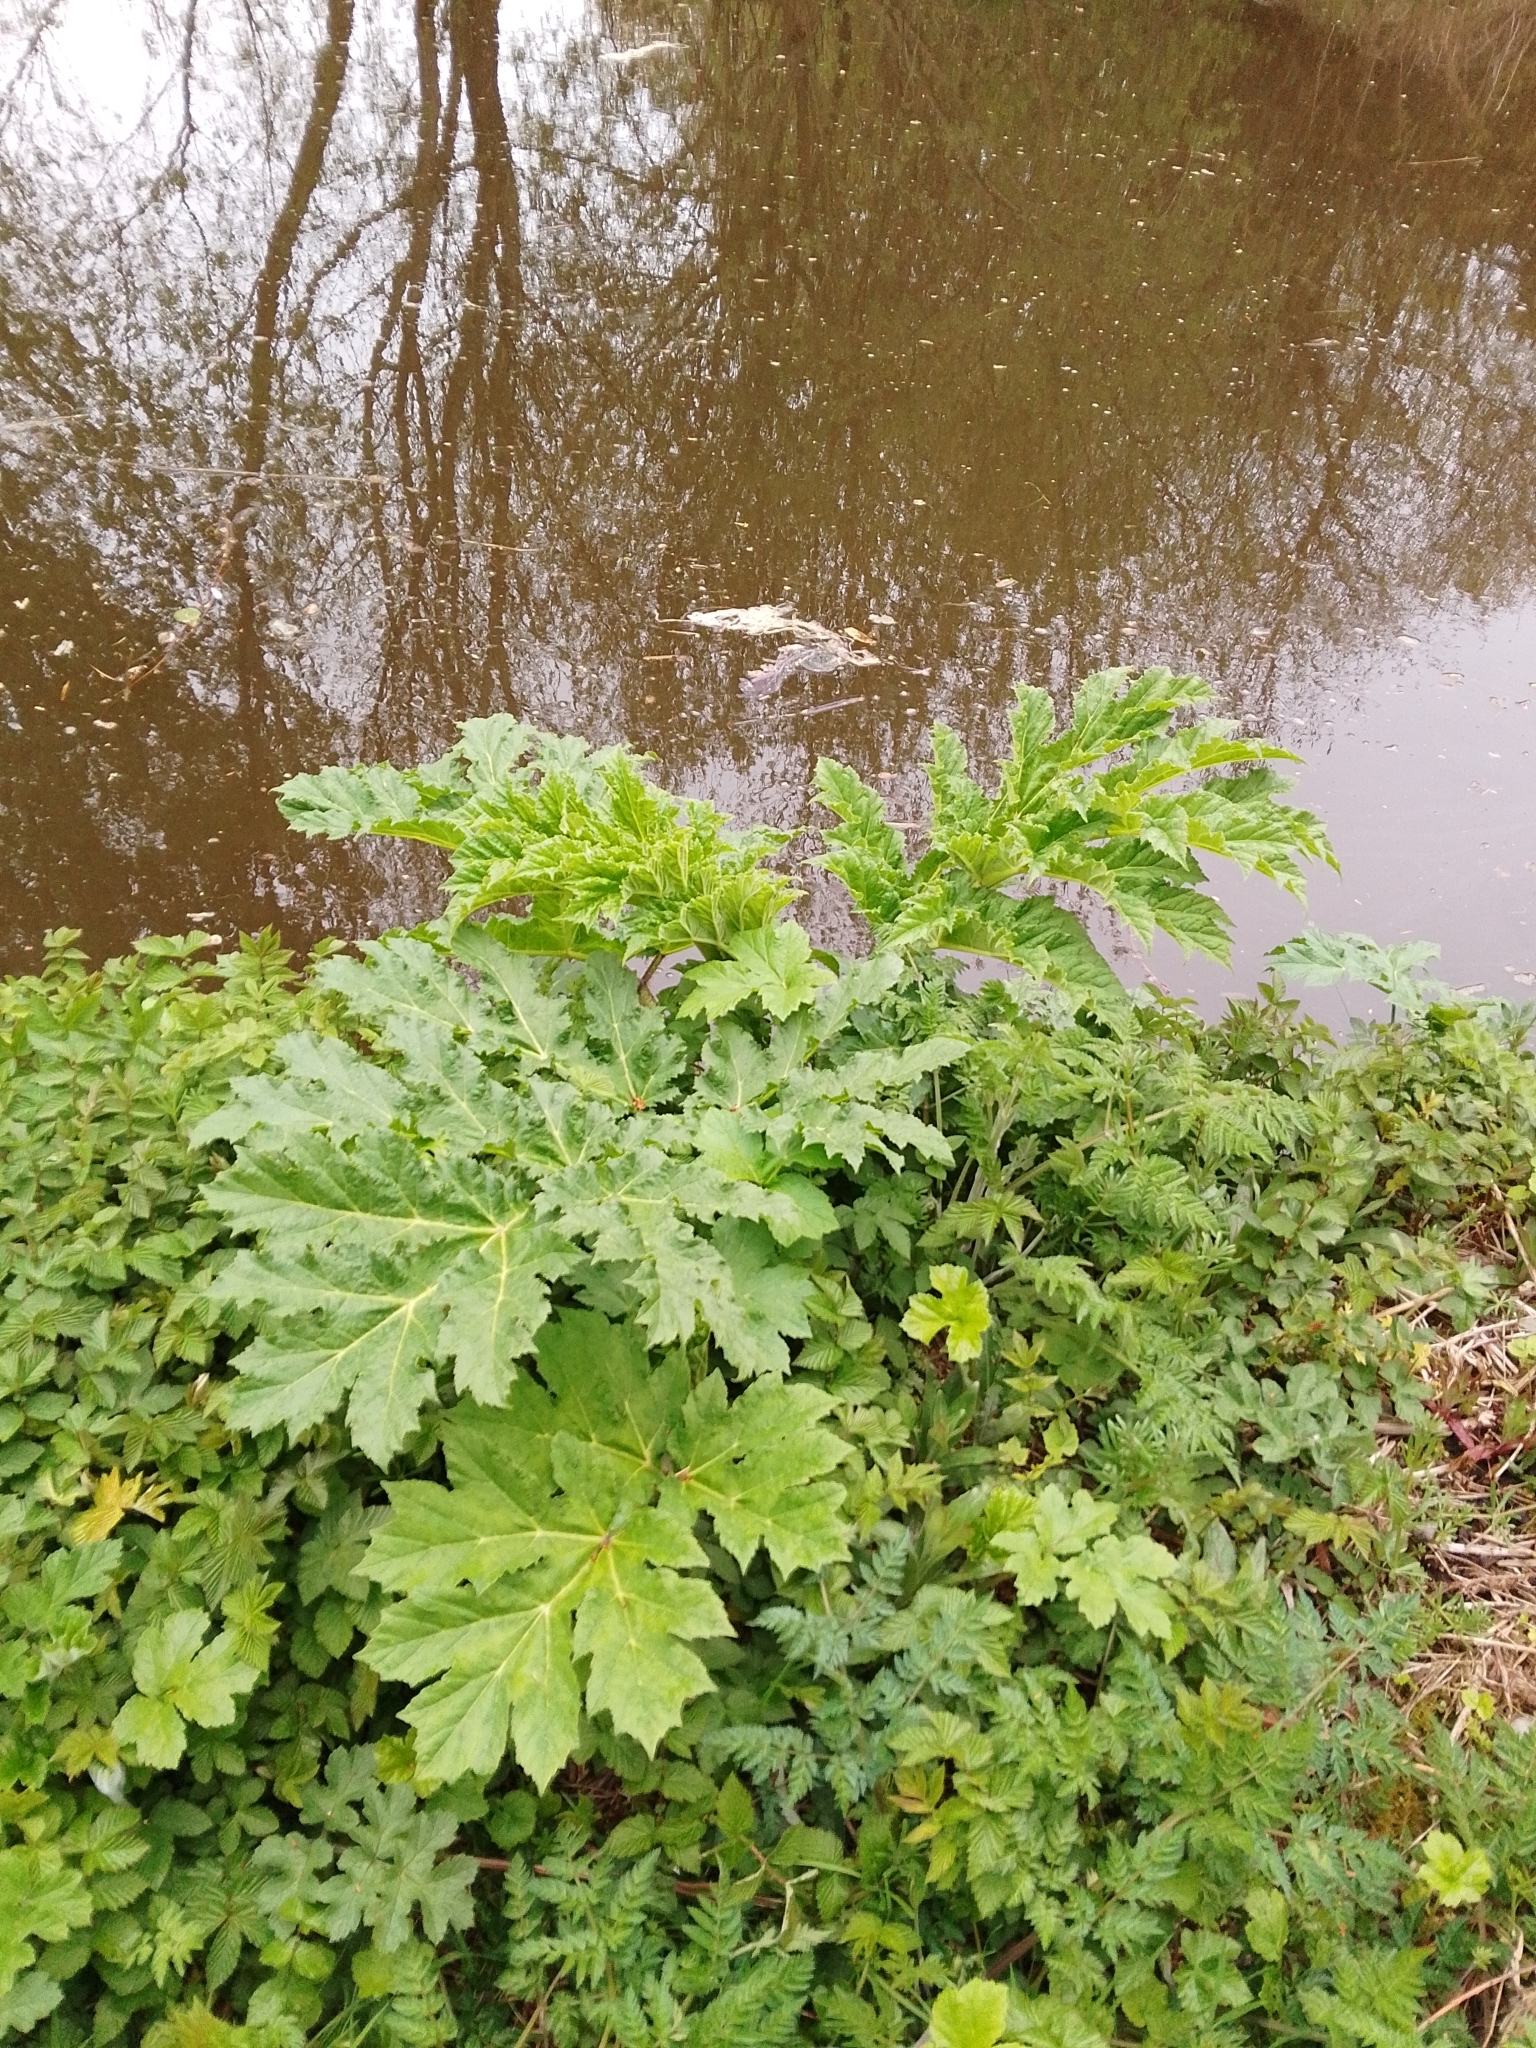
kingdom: Plantae
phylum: Tracheophyta
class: Magnoliopsida
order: Apiales
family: Apiaceae
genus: Heracleum
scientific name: Heracleum mantegazzianum
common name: Giant hogweed
